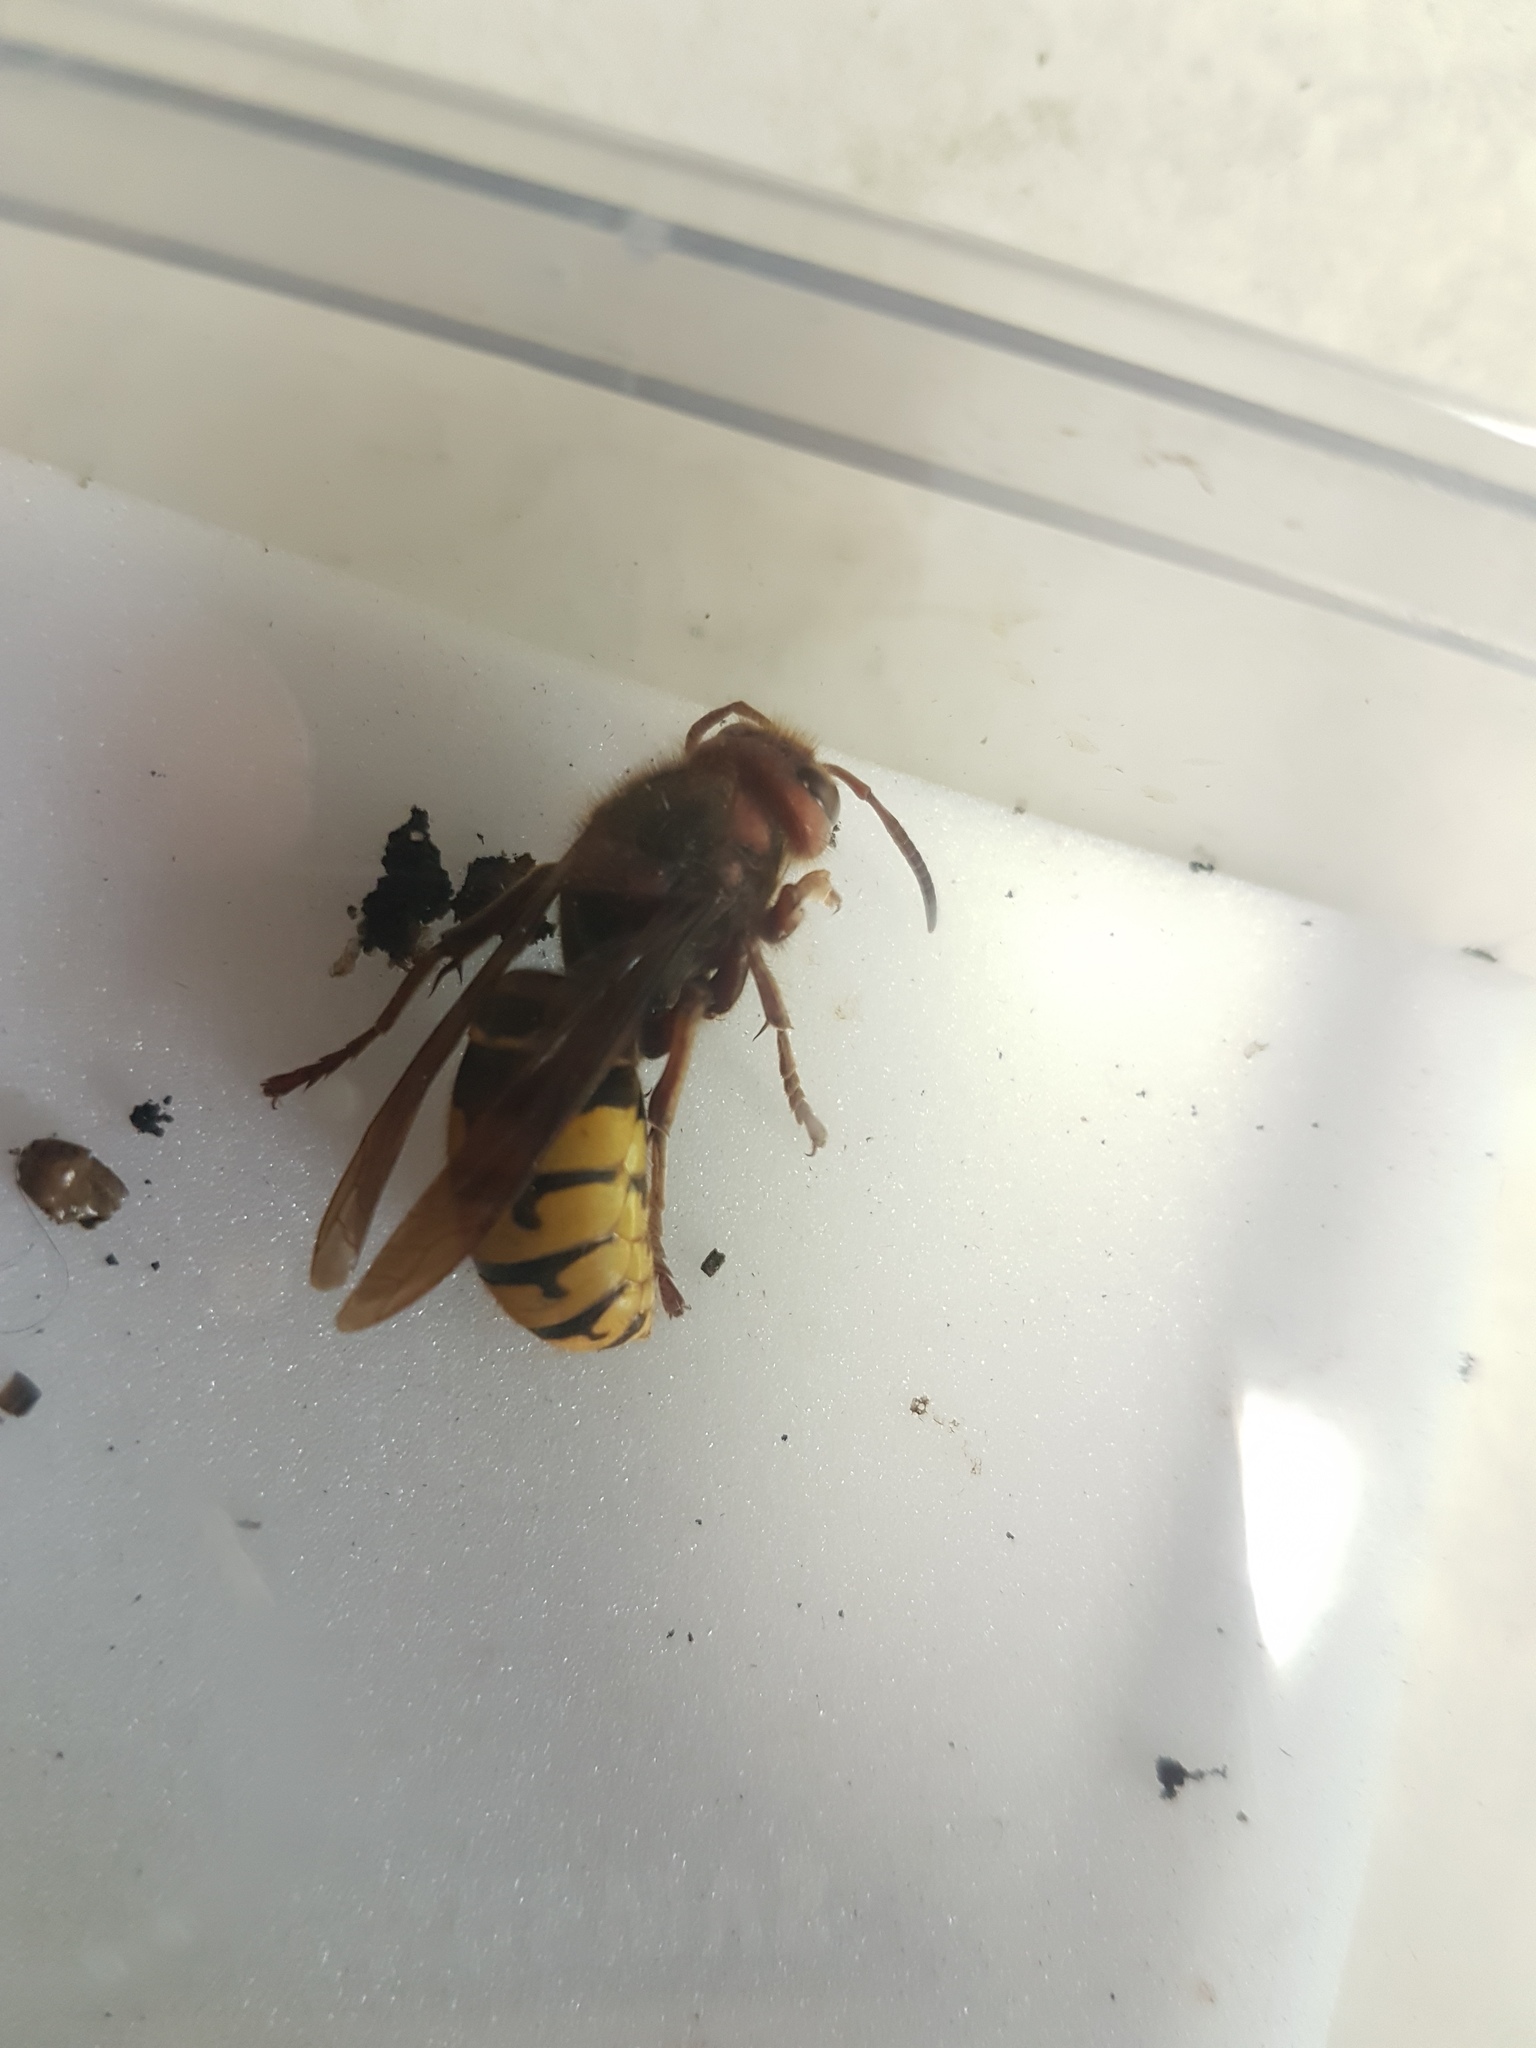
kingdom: Animalia
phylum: Arthropoda
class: Insecta
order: Hymenoptera
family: Vespidae
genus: Vespa
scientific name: Vespa crabro
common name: Hornet
